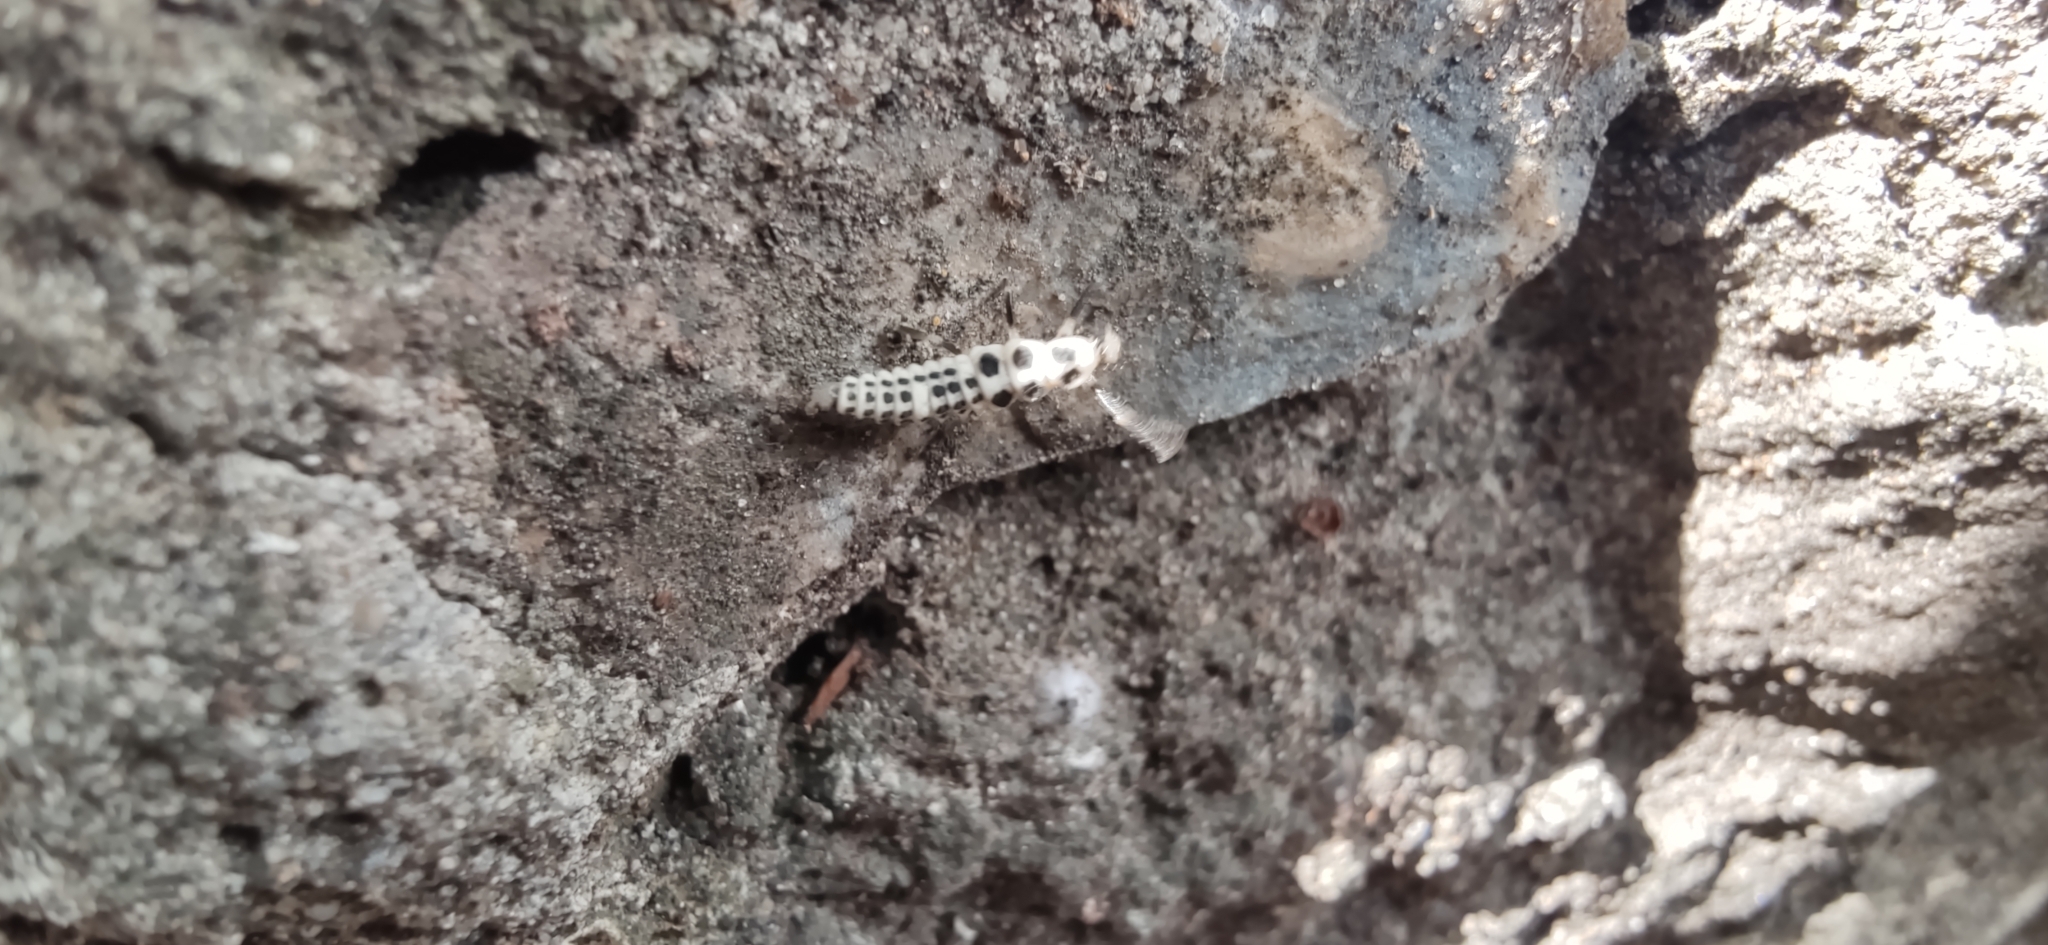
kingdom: Animalia
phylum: Arthropoda
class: Insecta
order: Coleoptera
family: Coccinellidae
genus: Calvia
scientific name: Calvia decemguttata
